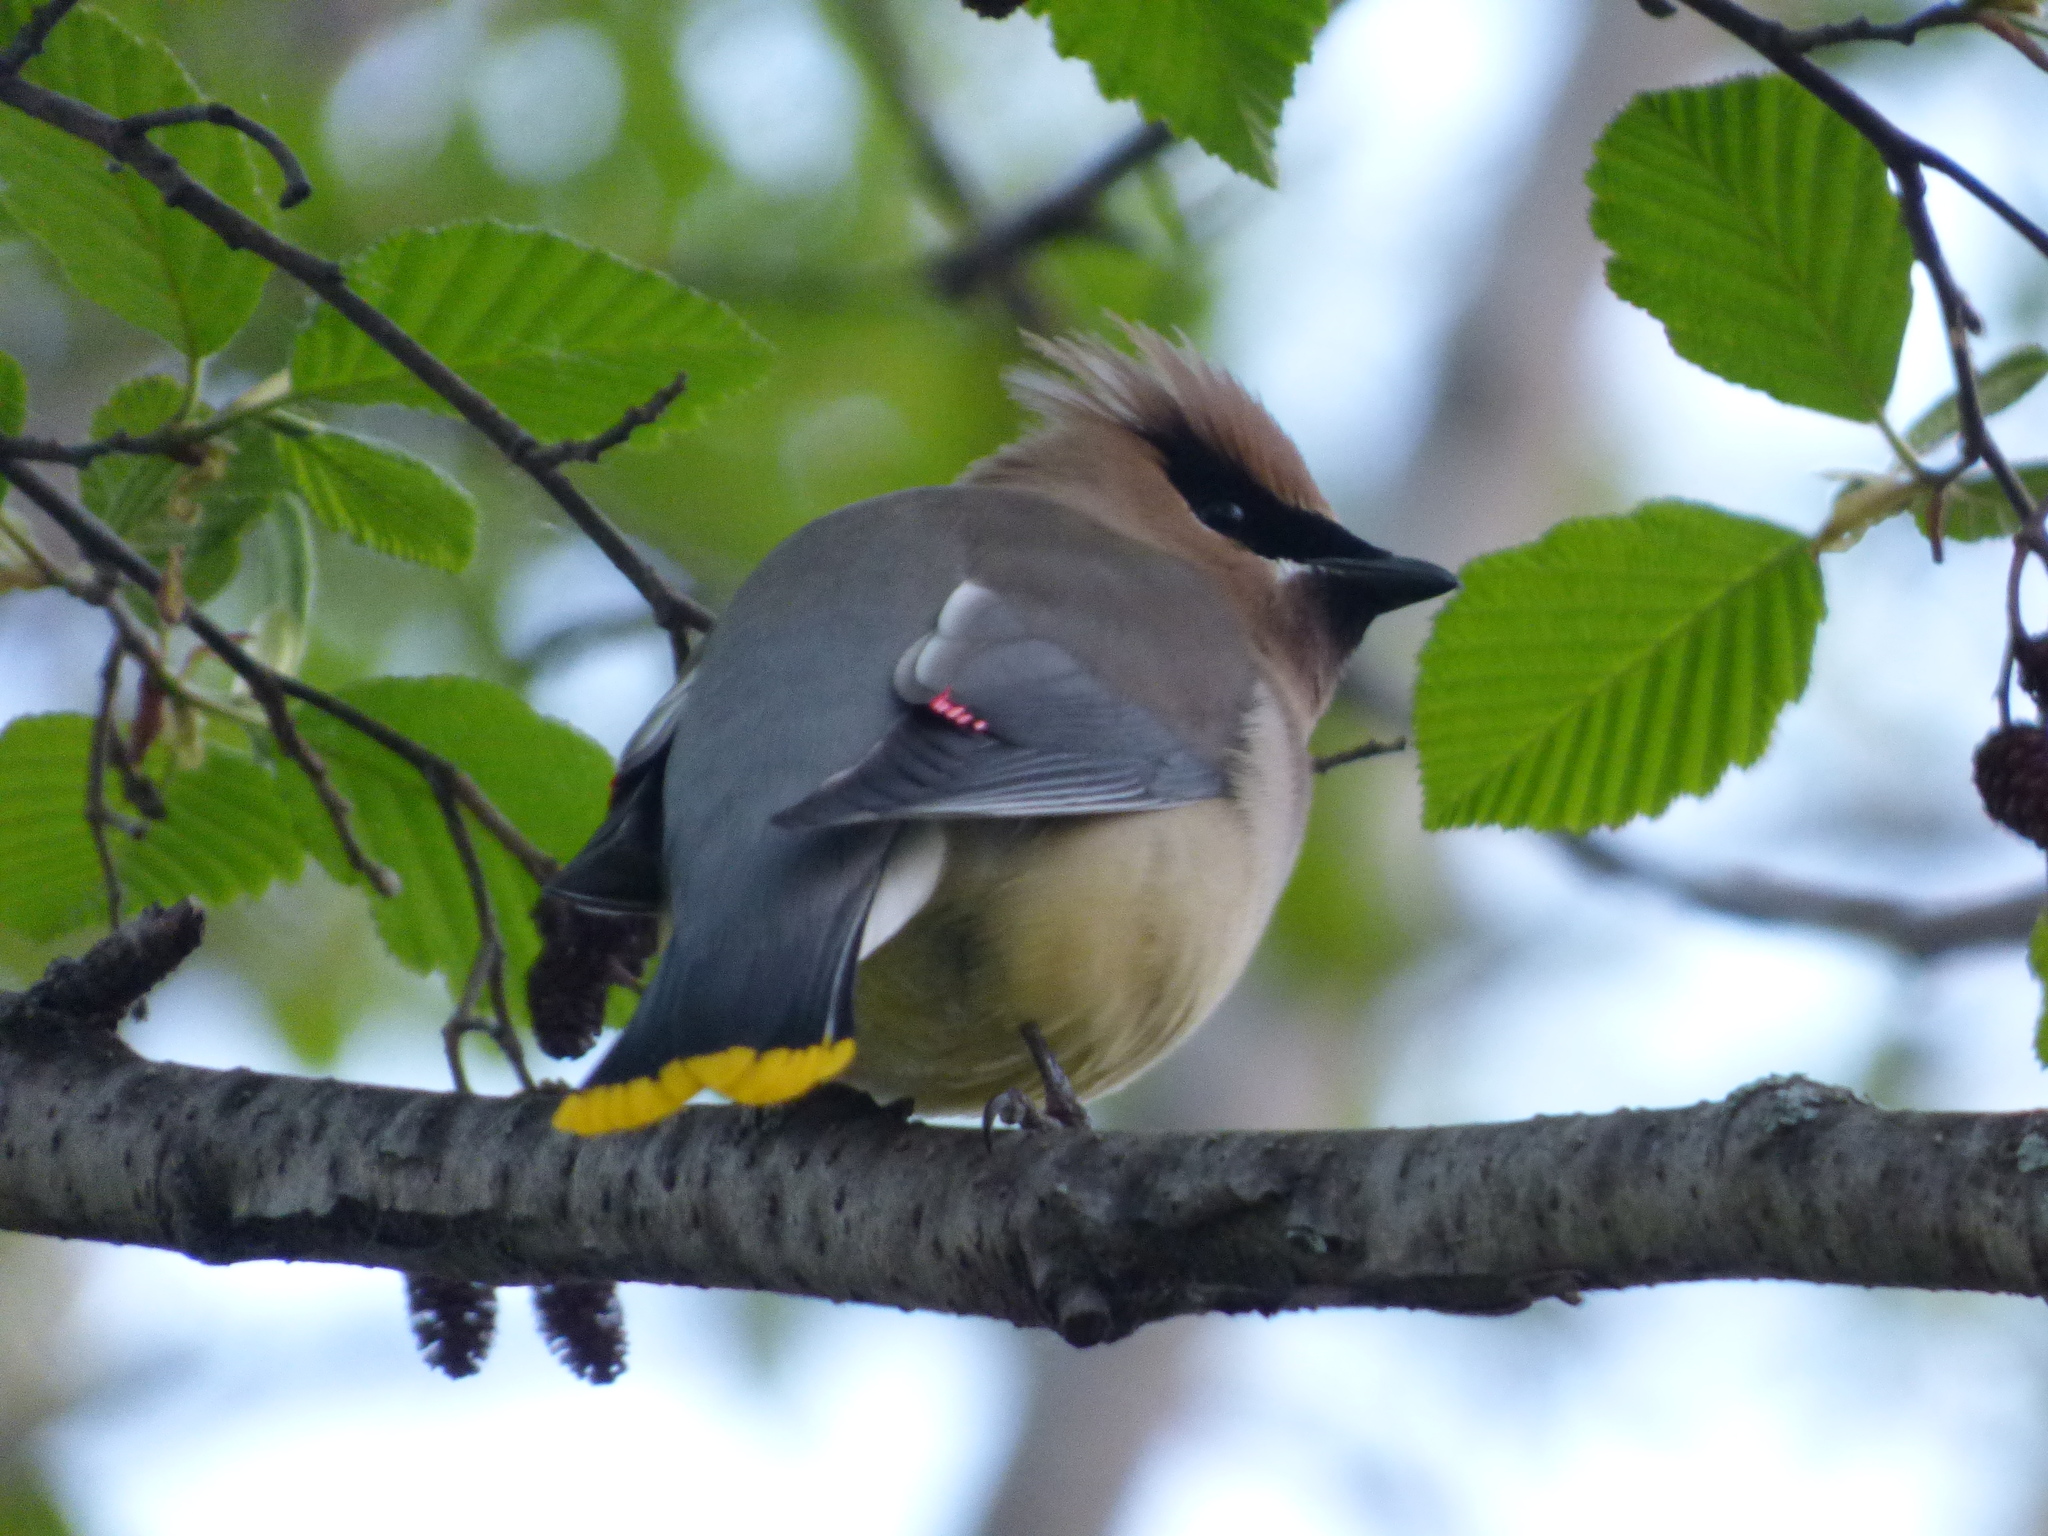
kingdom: Animalia
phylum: Chordata
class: Aves
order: Passeriformes
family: Bombycillidae
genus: Bombycilla
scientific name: Bombycilla cedrorum
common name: Cedar waxwing
